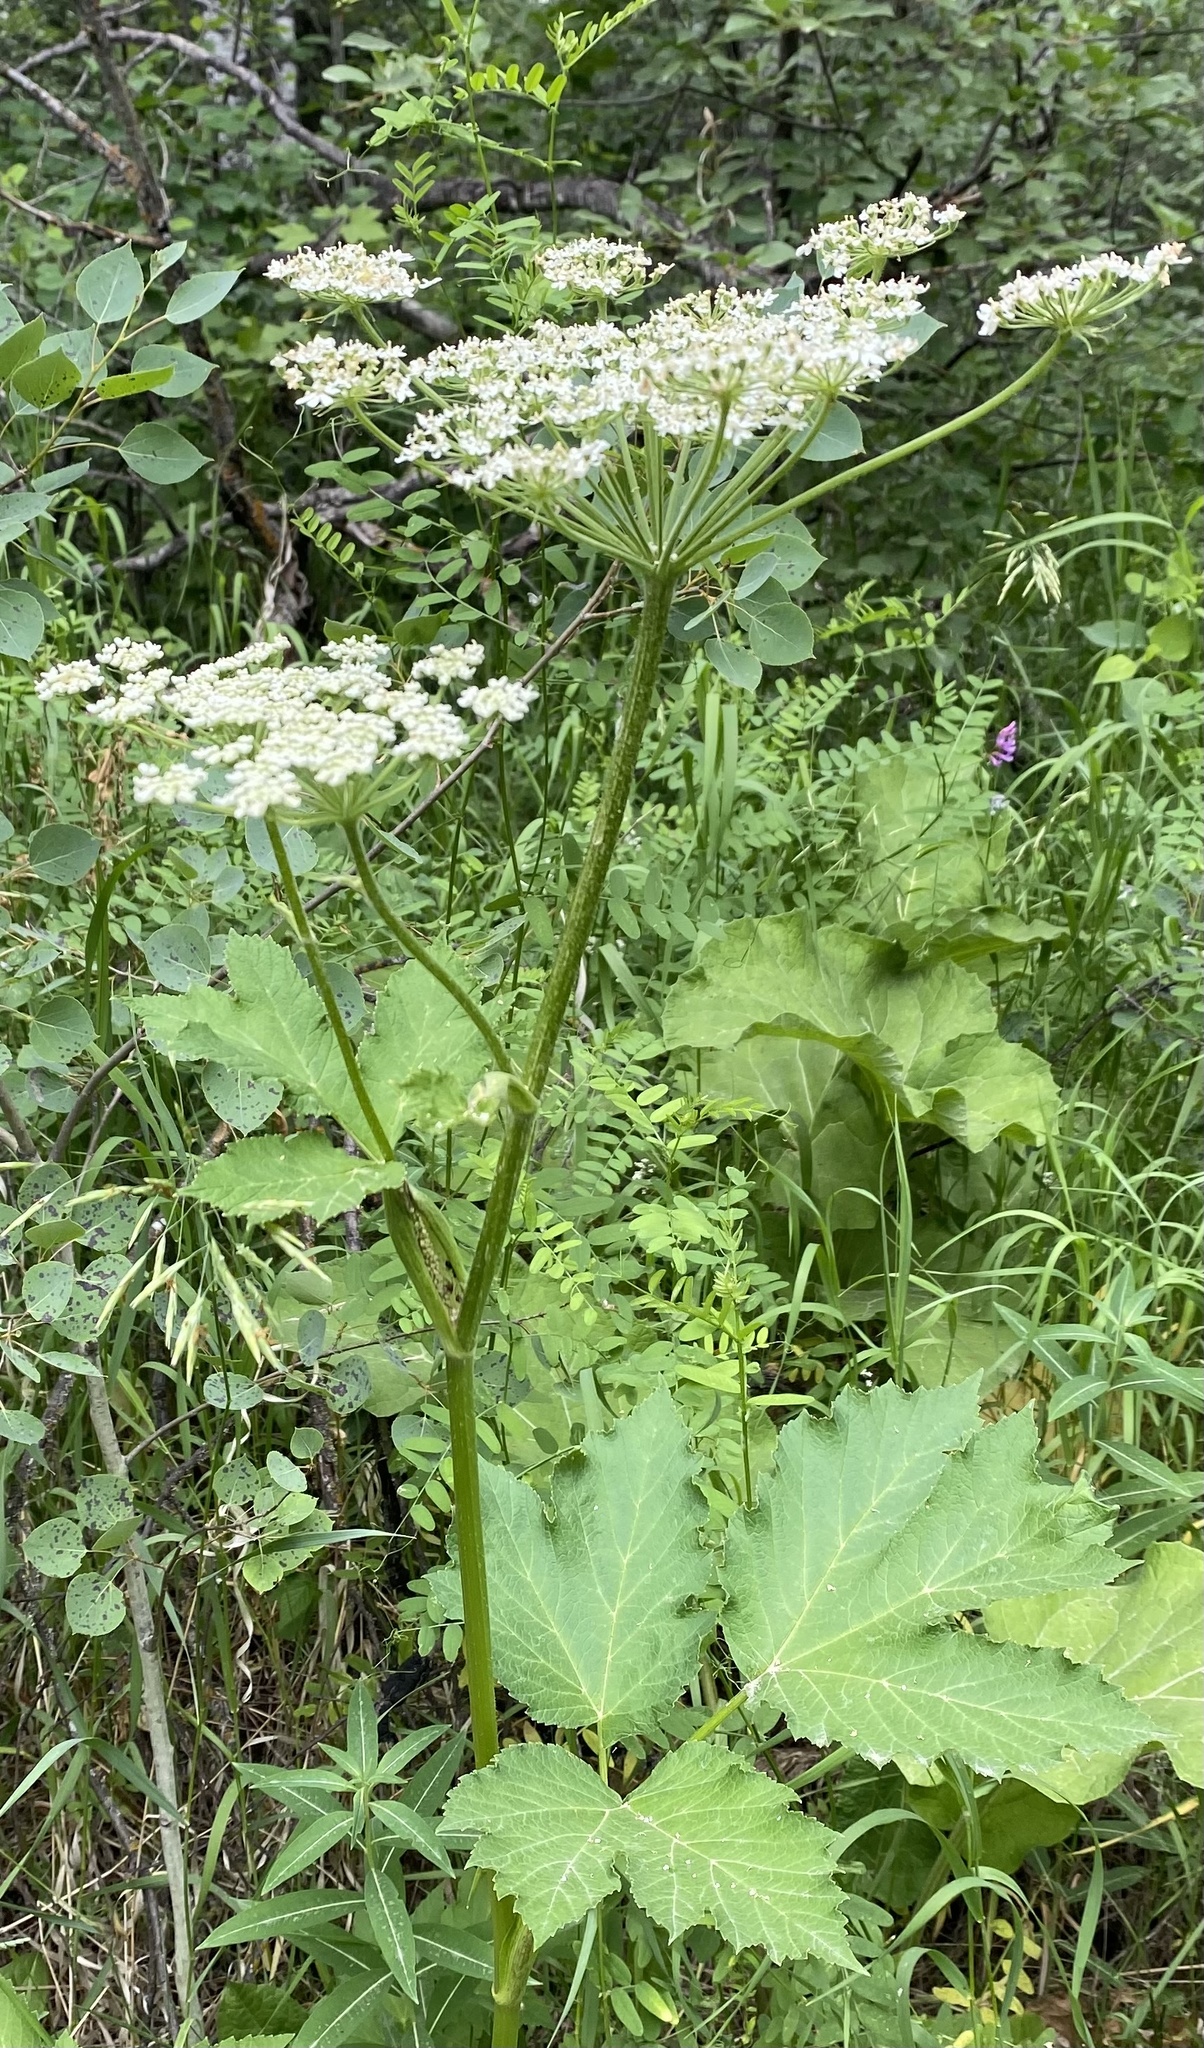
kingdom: Plantae
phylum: Tracheophyta
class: Magnoliopsida
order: Apiales
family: Apiaceae
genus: Heracleum
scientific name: Heracleum maximum
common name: American cow parsnip
